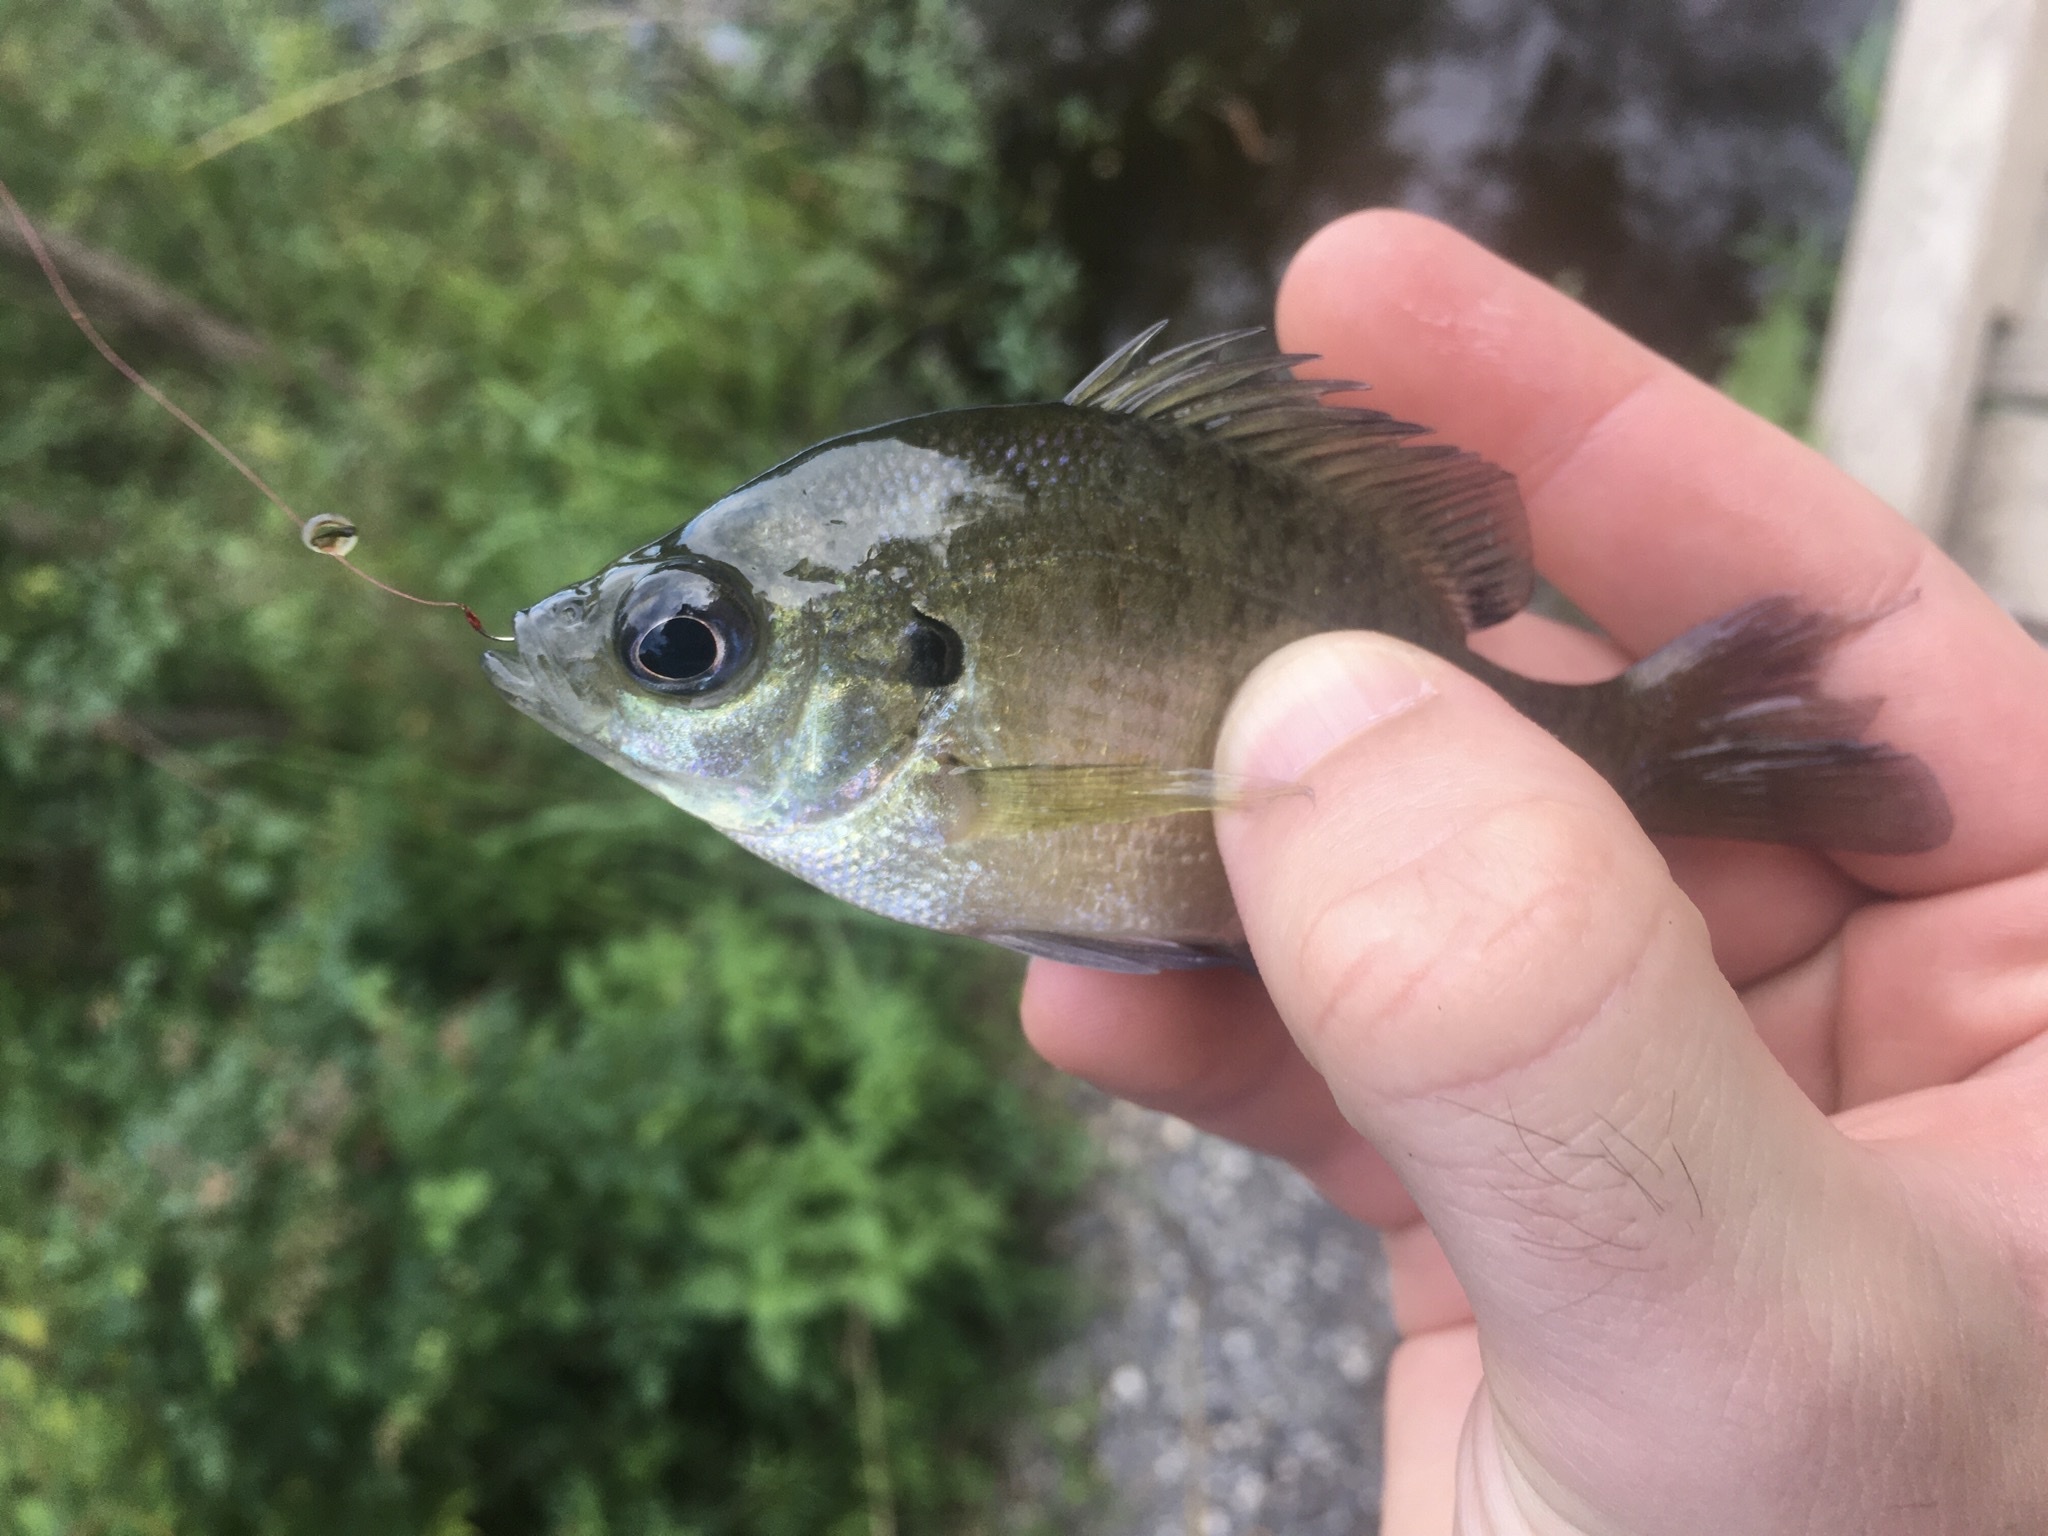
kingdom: Animalia
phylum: Chordata
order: Perciformes
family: Centrarchidae
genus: Lepomis
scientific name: Lepomis macrochirus
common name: Bluegill
